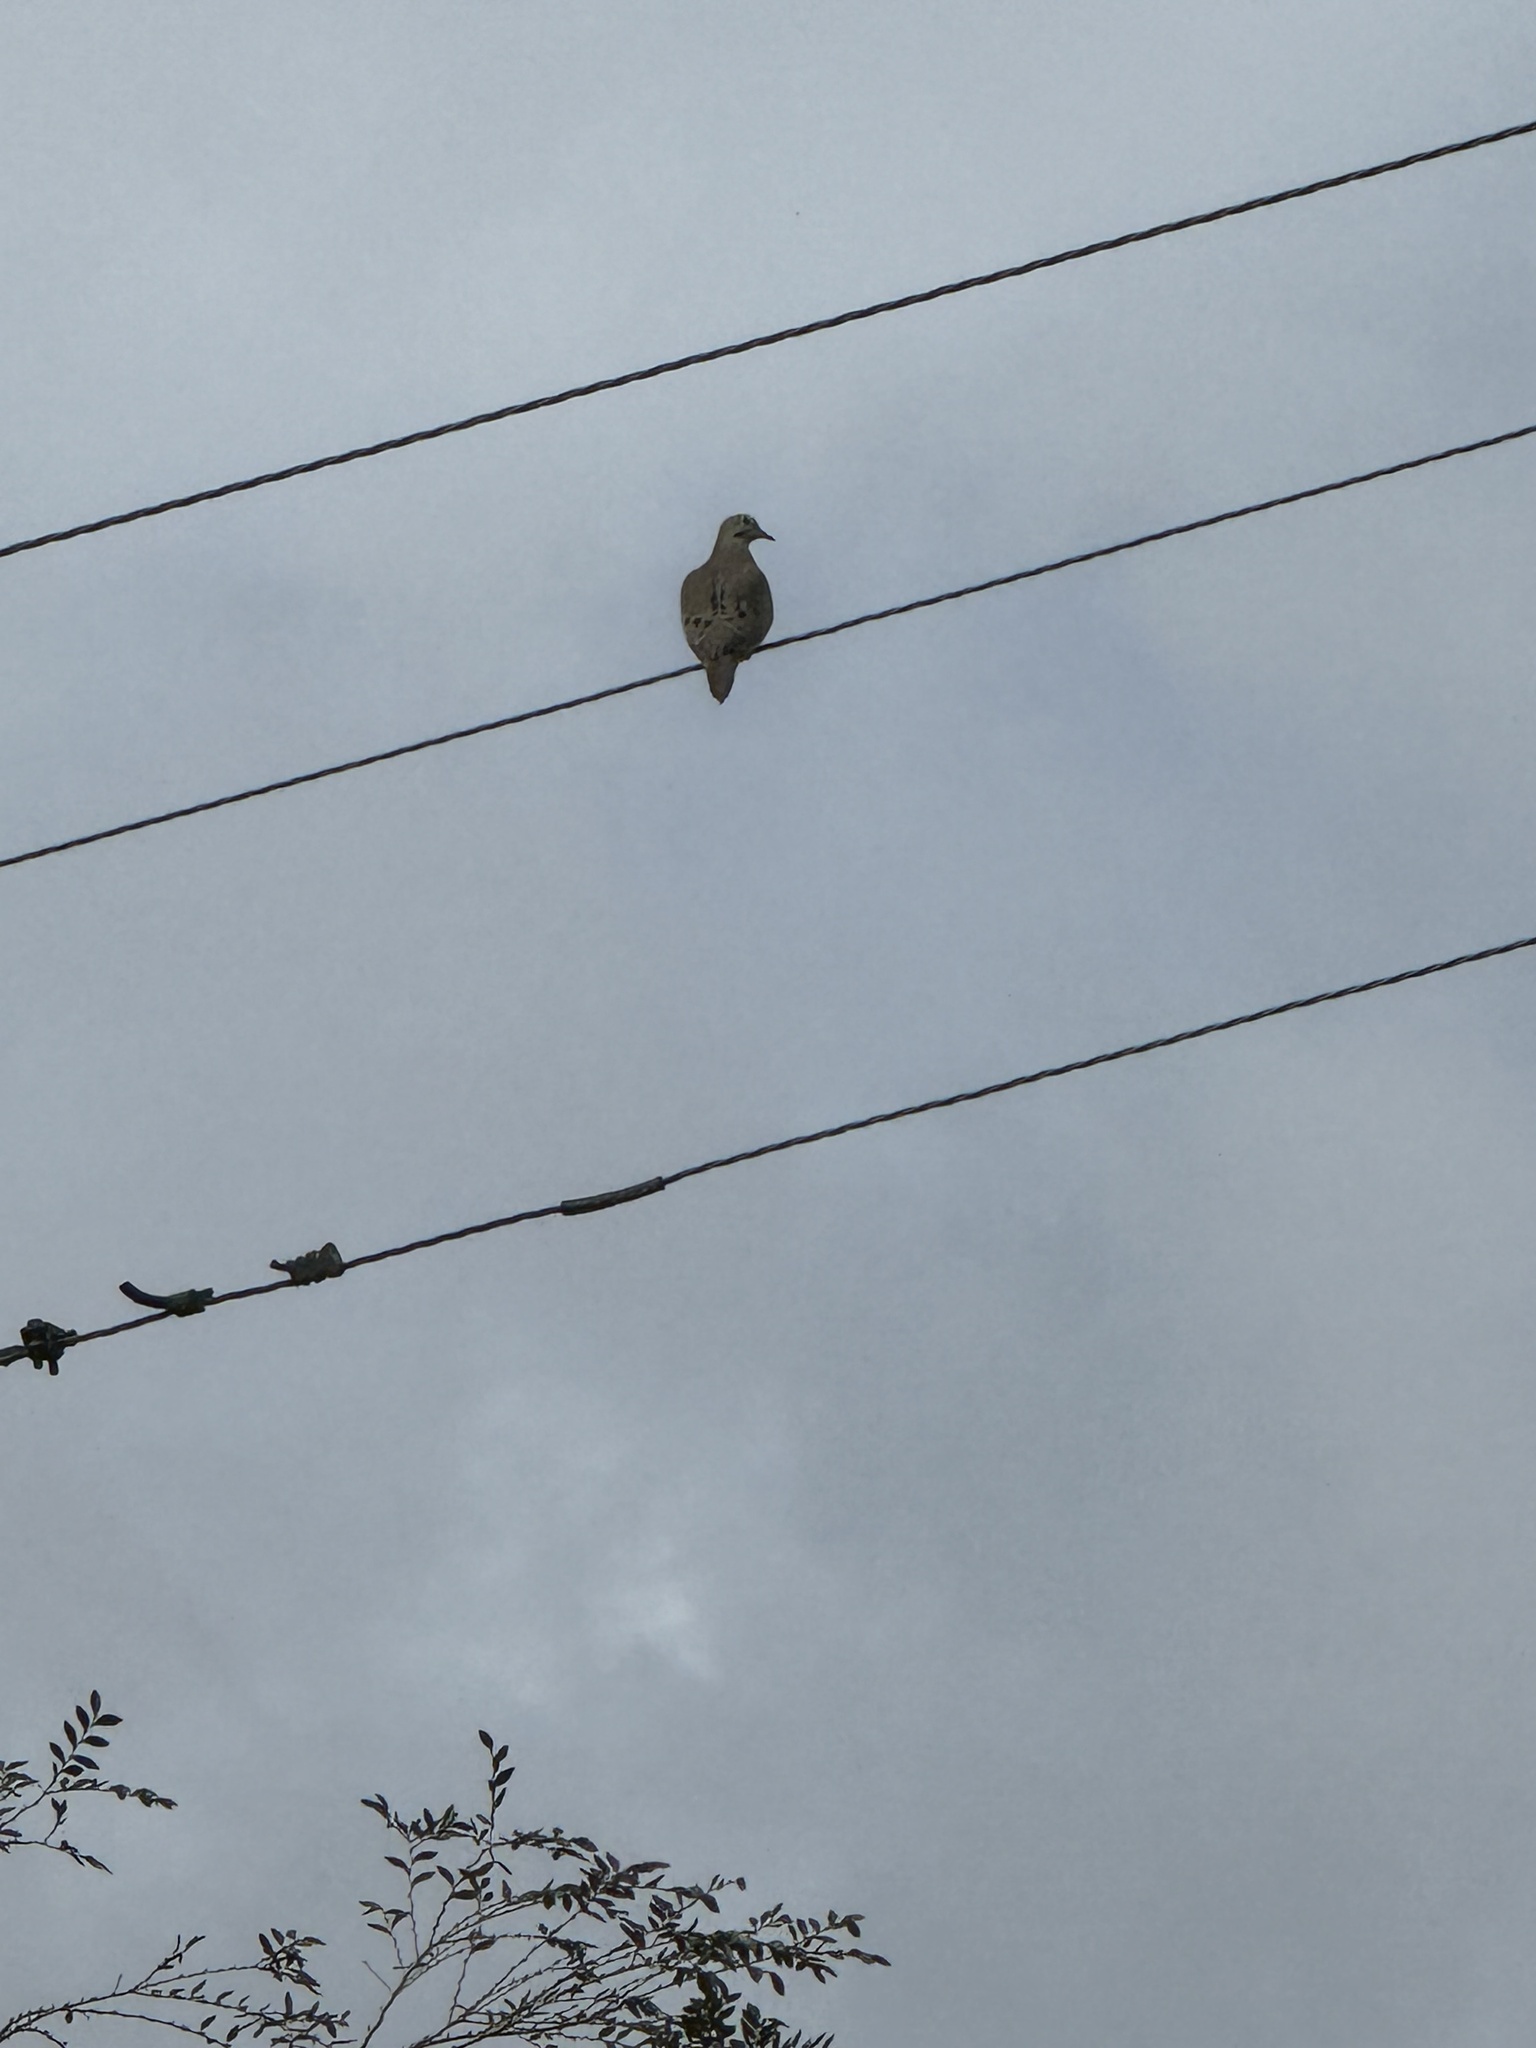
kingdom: Animalia
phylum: Chordata
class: Aves
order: Columbiformes
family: Columbidae
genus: Zenaida
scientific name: Zenaida macroura
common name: Mourning dove
